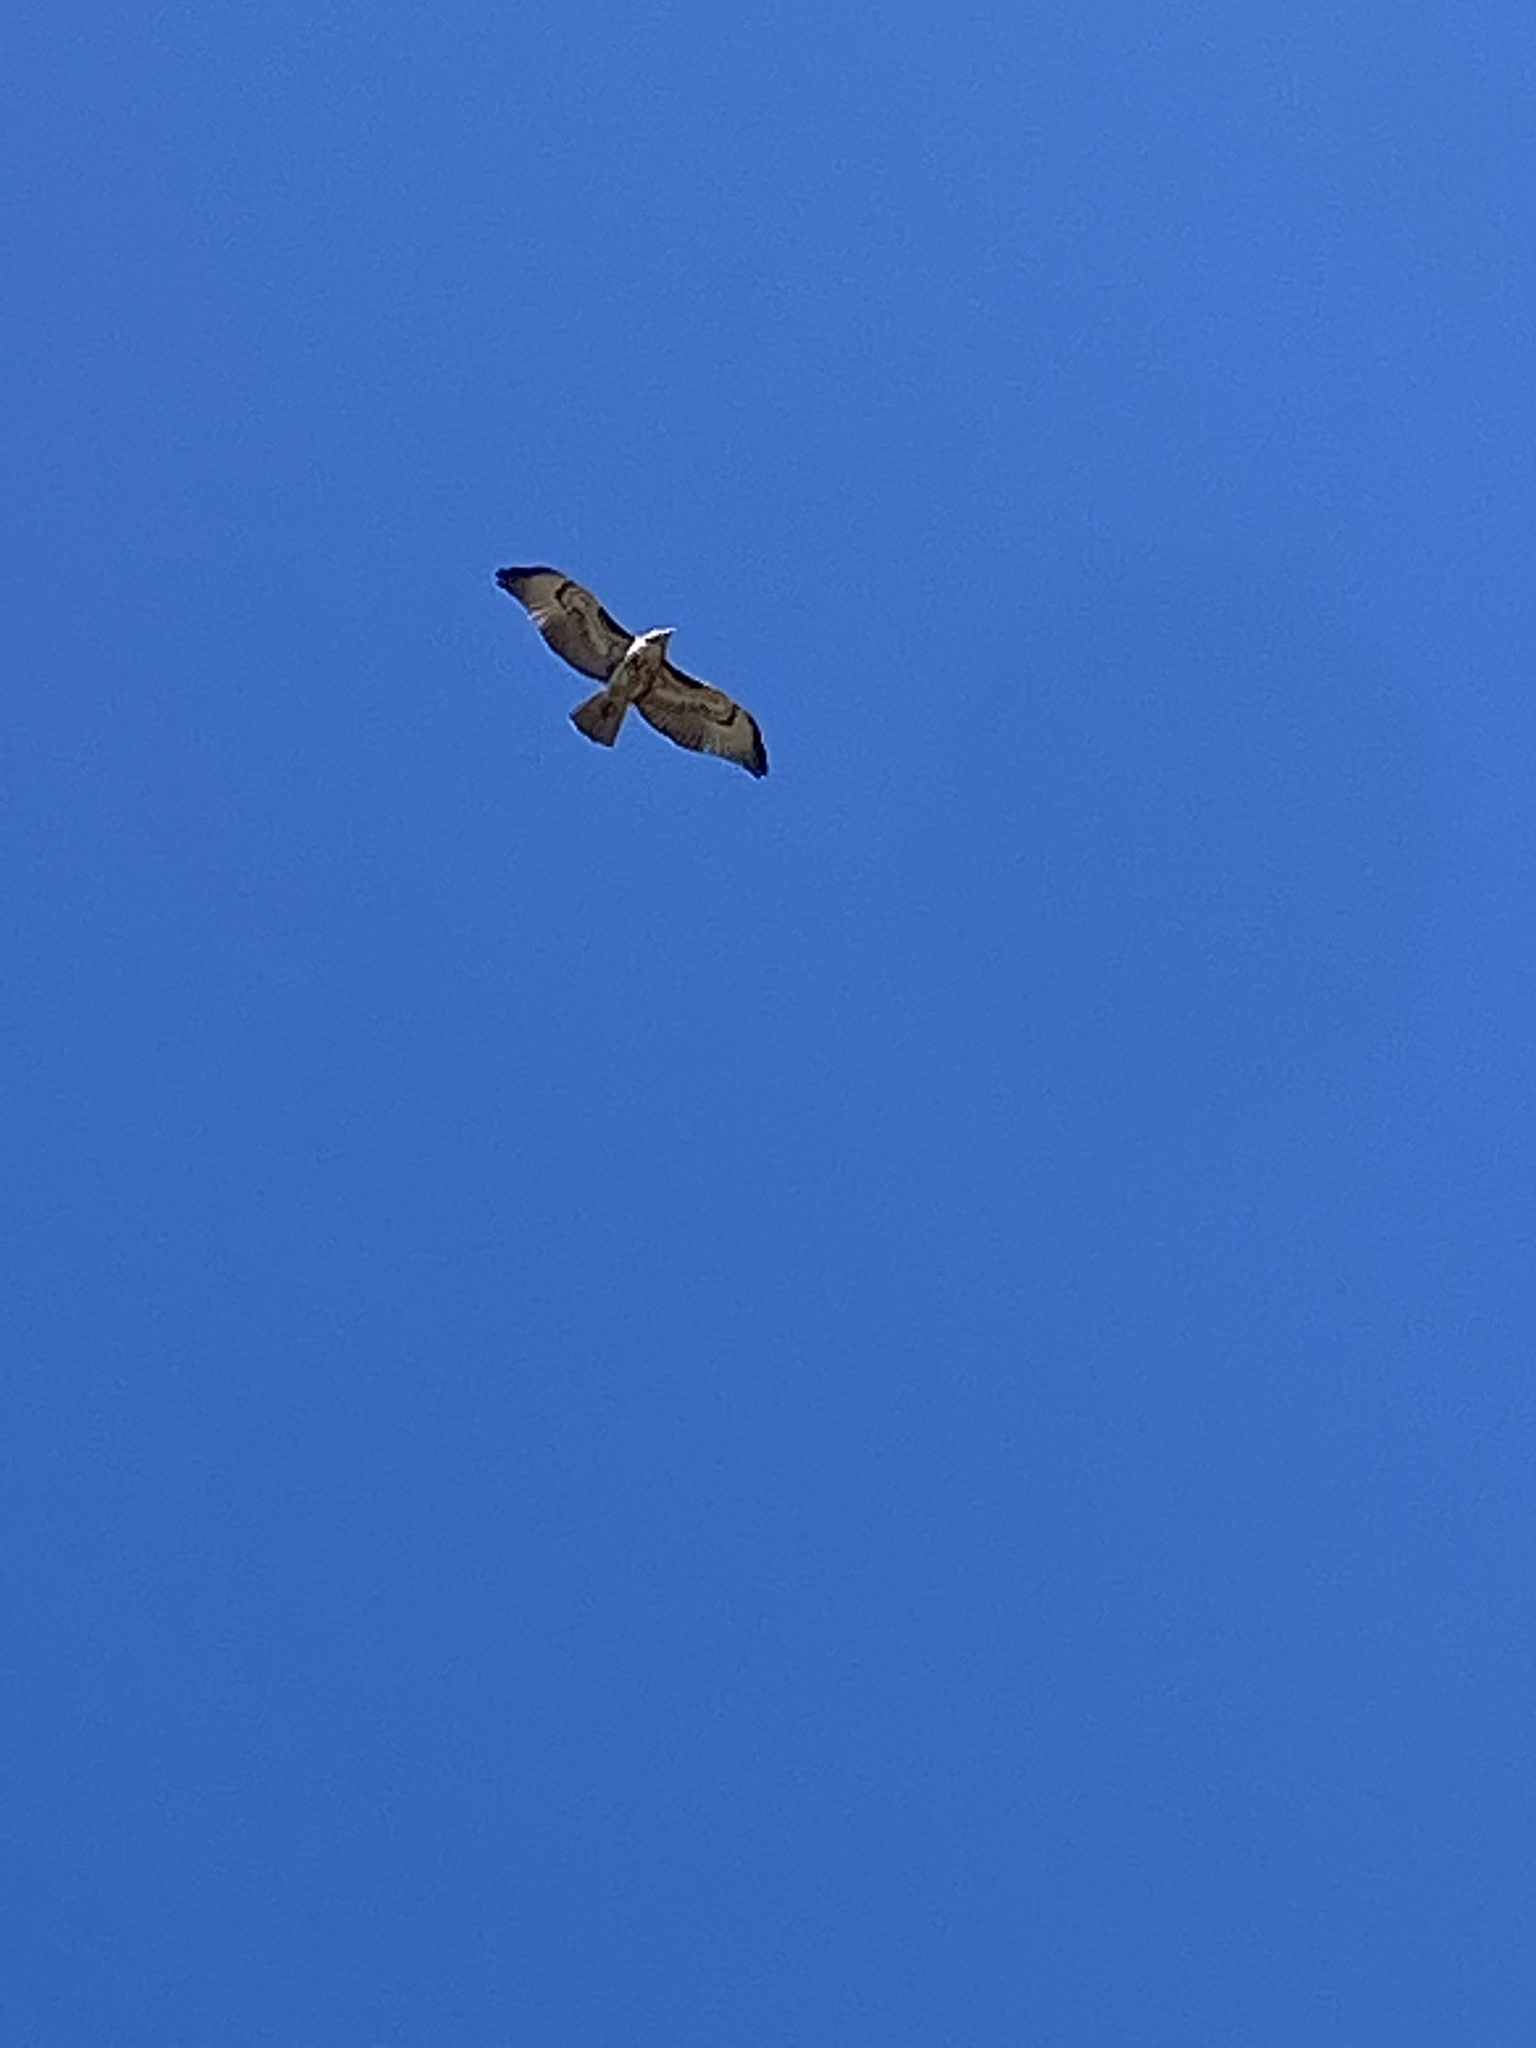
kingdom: Animalia
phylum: Chordata
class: Aves
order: Accipitriformes
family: Accipitridae
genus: Buteo
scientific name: Buteo jamaicensis
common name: Red-tailed hawk
